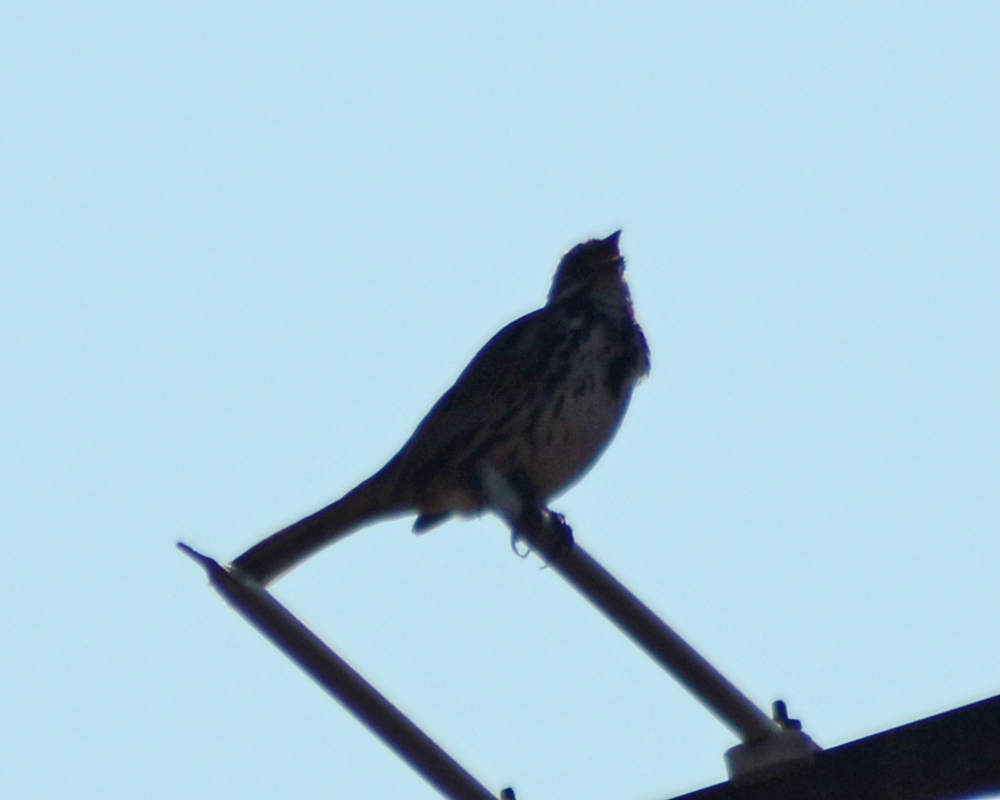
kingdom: Animalia
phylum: Chordata
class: Aves
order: Passeriformes
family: Passerellidae
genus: Melospiza
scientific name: Melospiza melodia
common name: Song sparrow
